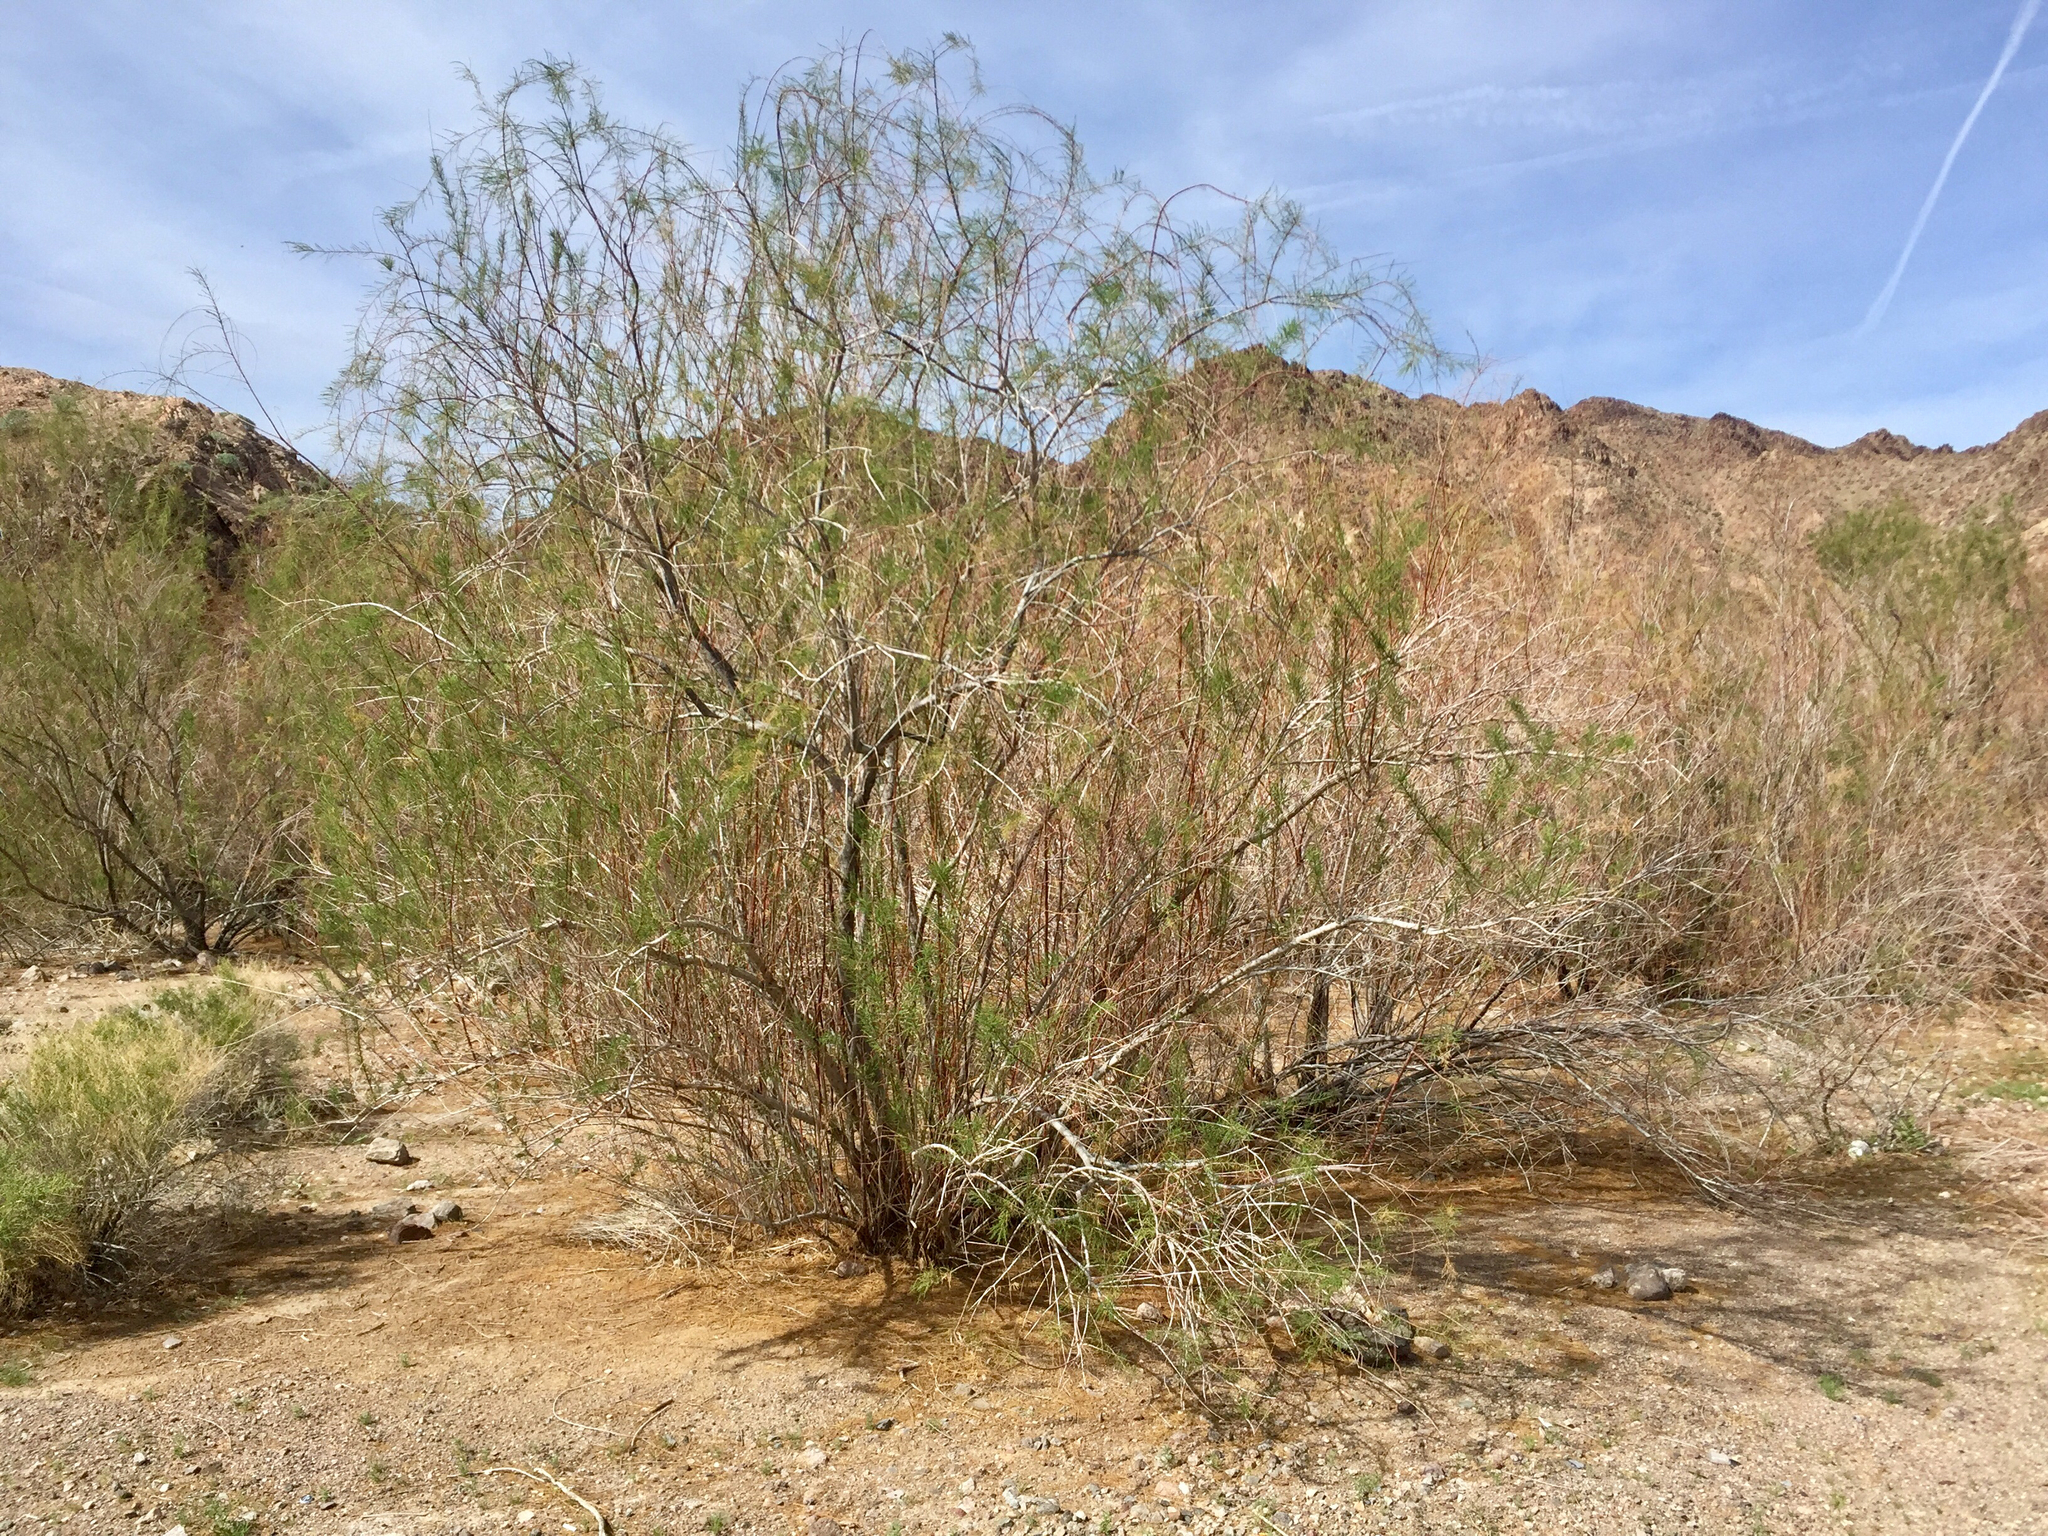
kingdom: Plantae
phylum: Tracheophyta
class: Magnoliopsida
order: Caryophyllales
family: Tamaricaceae
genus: Tamarix
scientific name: Tamarix
